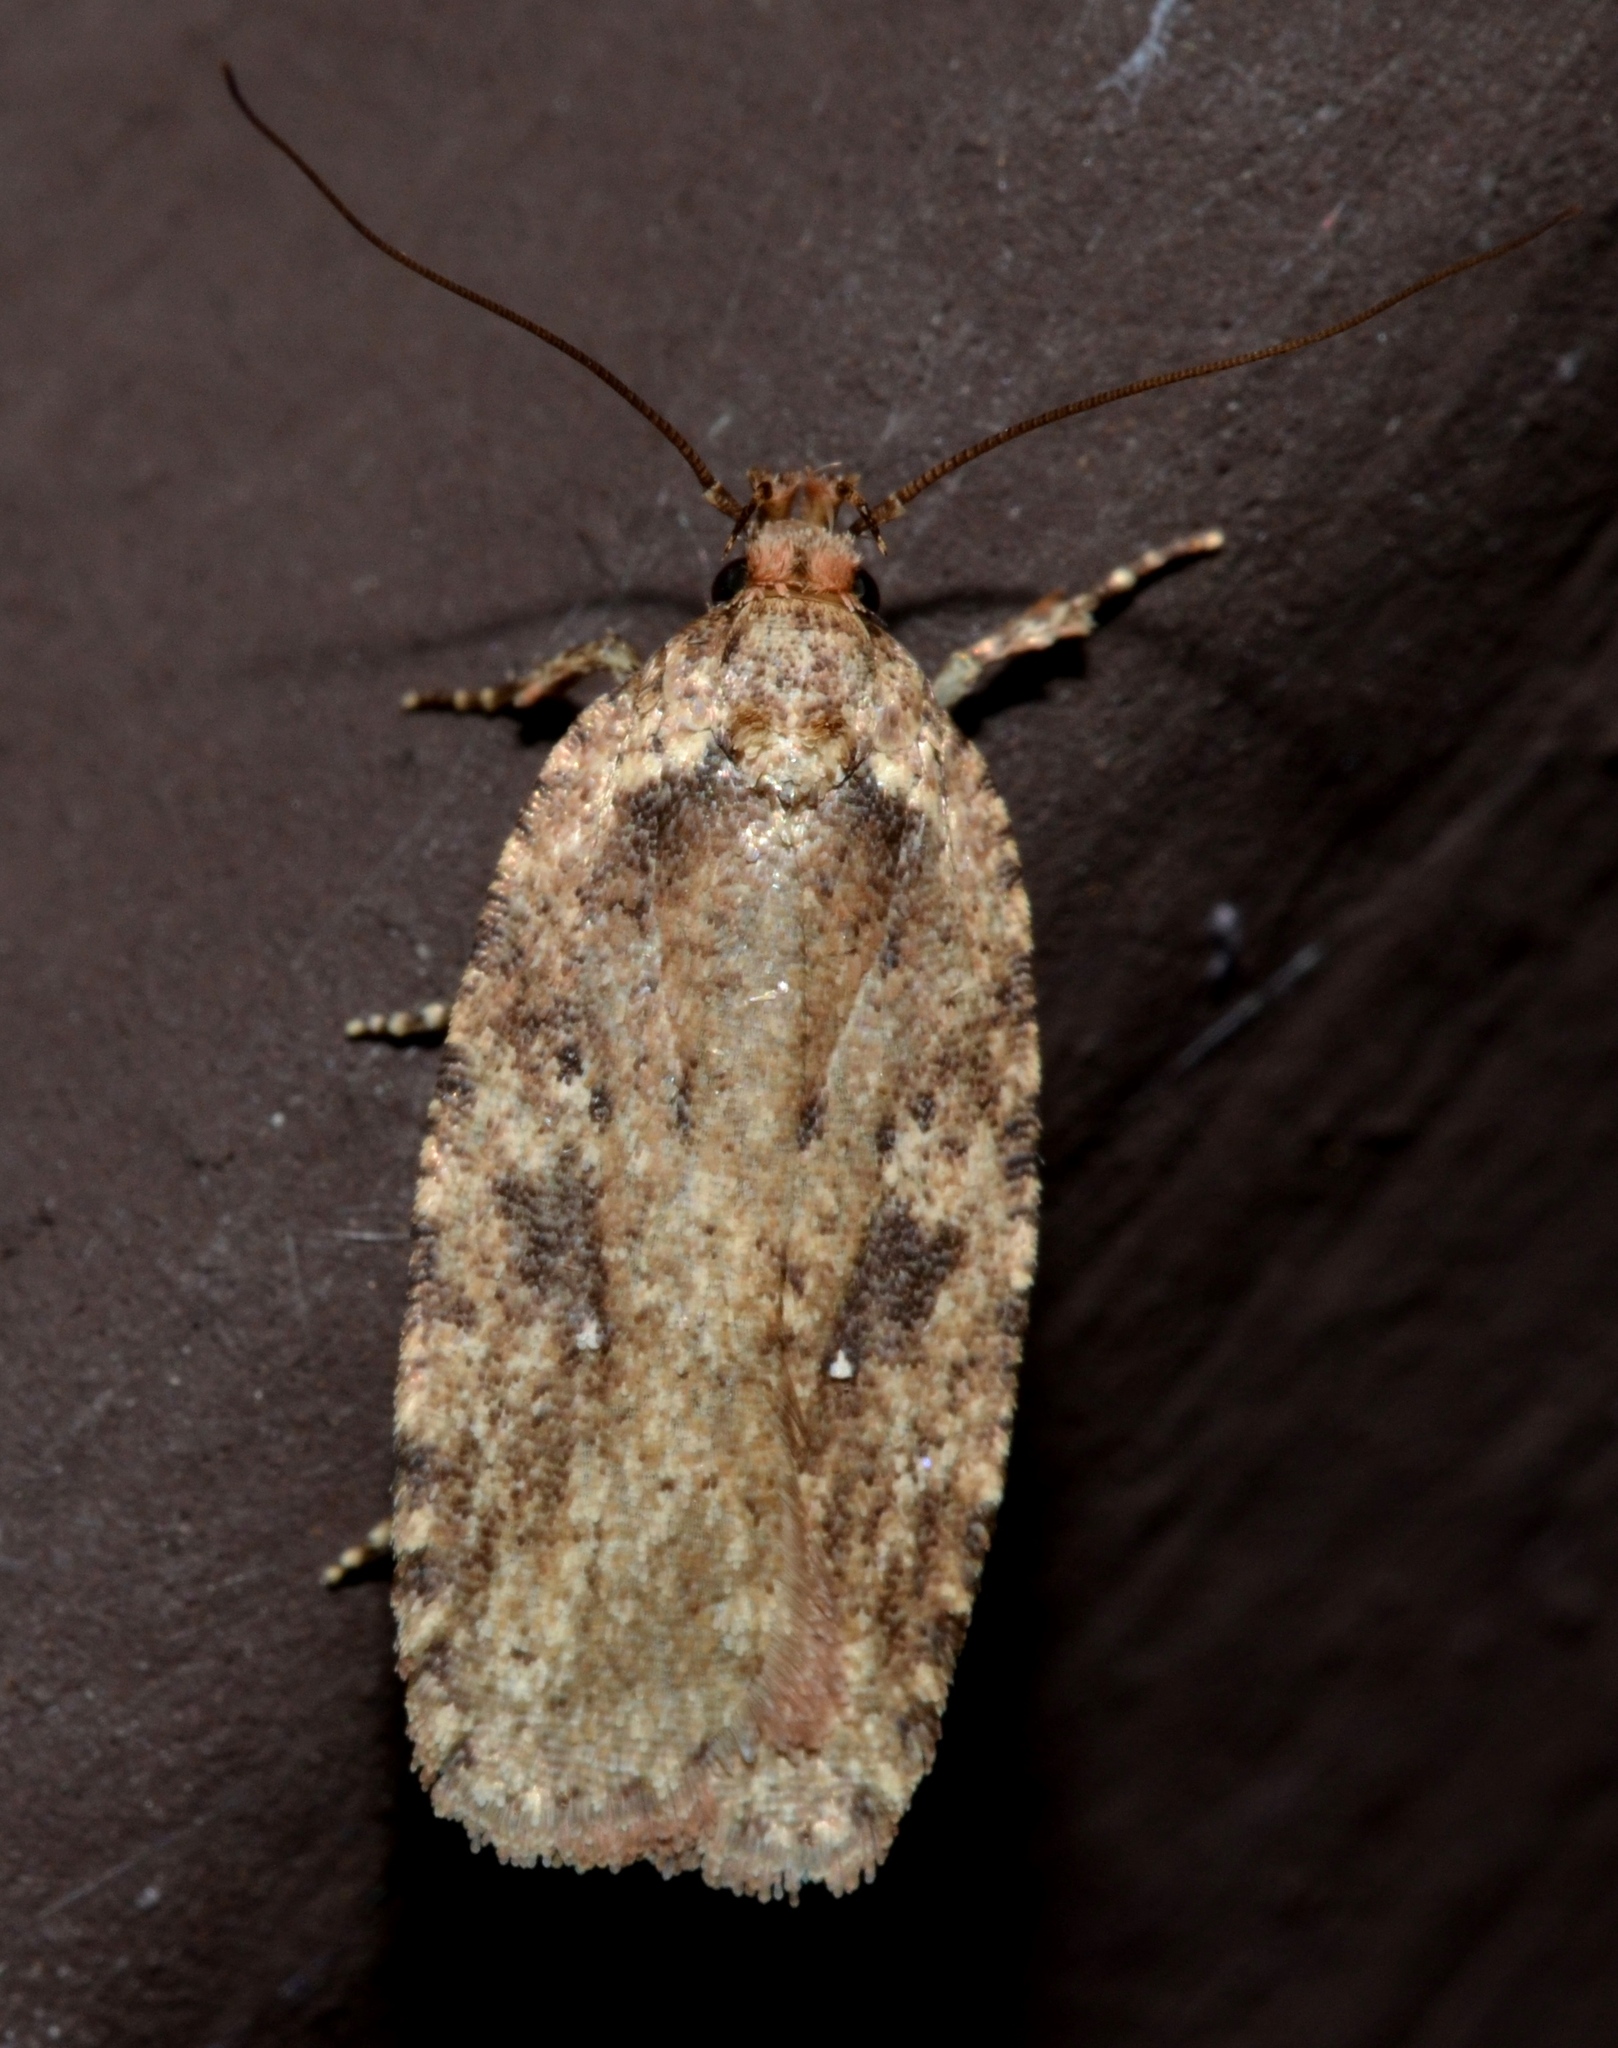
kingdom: Animalia
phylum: Arthropoda
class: Insecta
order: Lepidoptera
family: Depressariidae
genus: Agonopterix
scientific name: Agonopterix pulvipennella
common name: Goldenrod leafffolder
